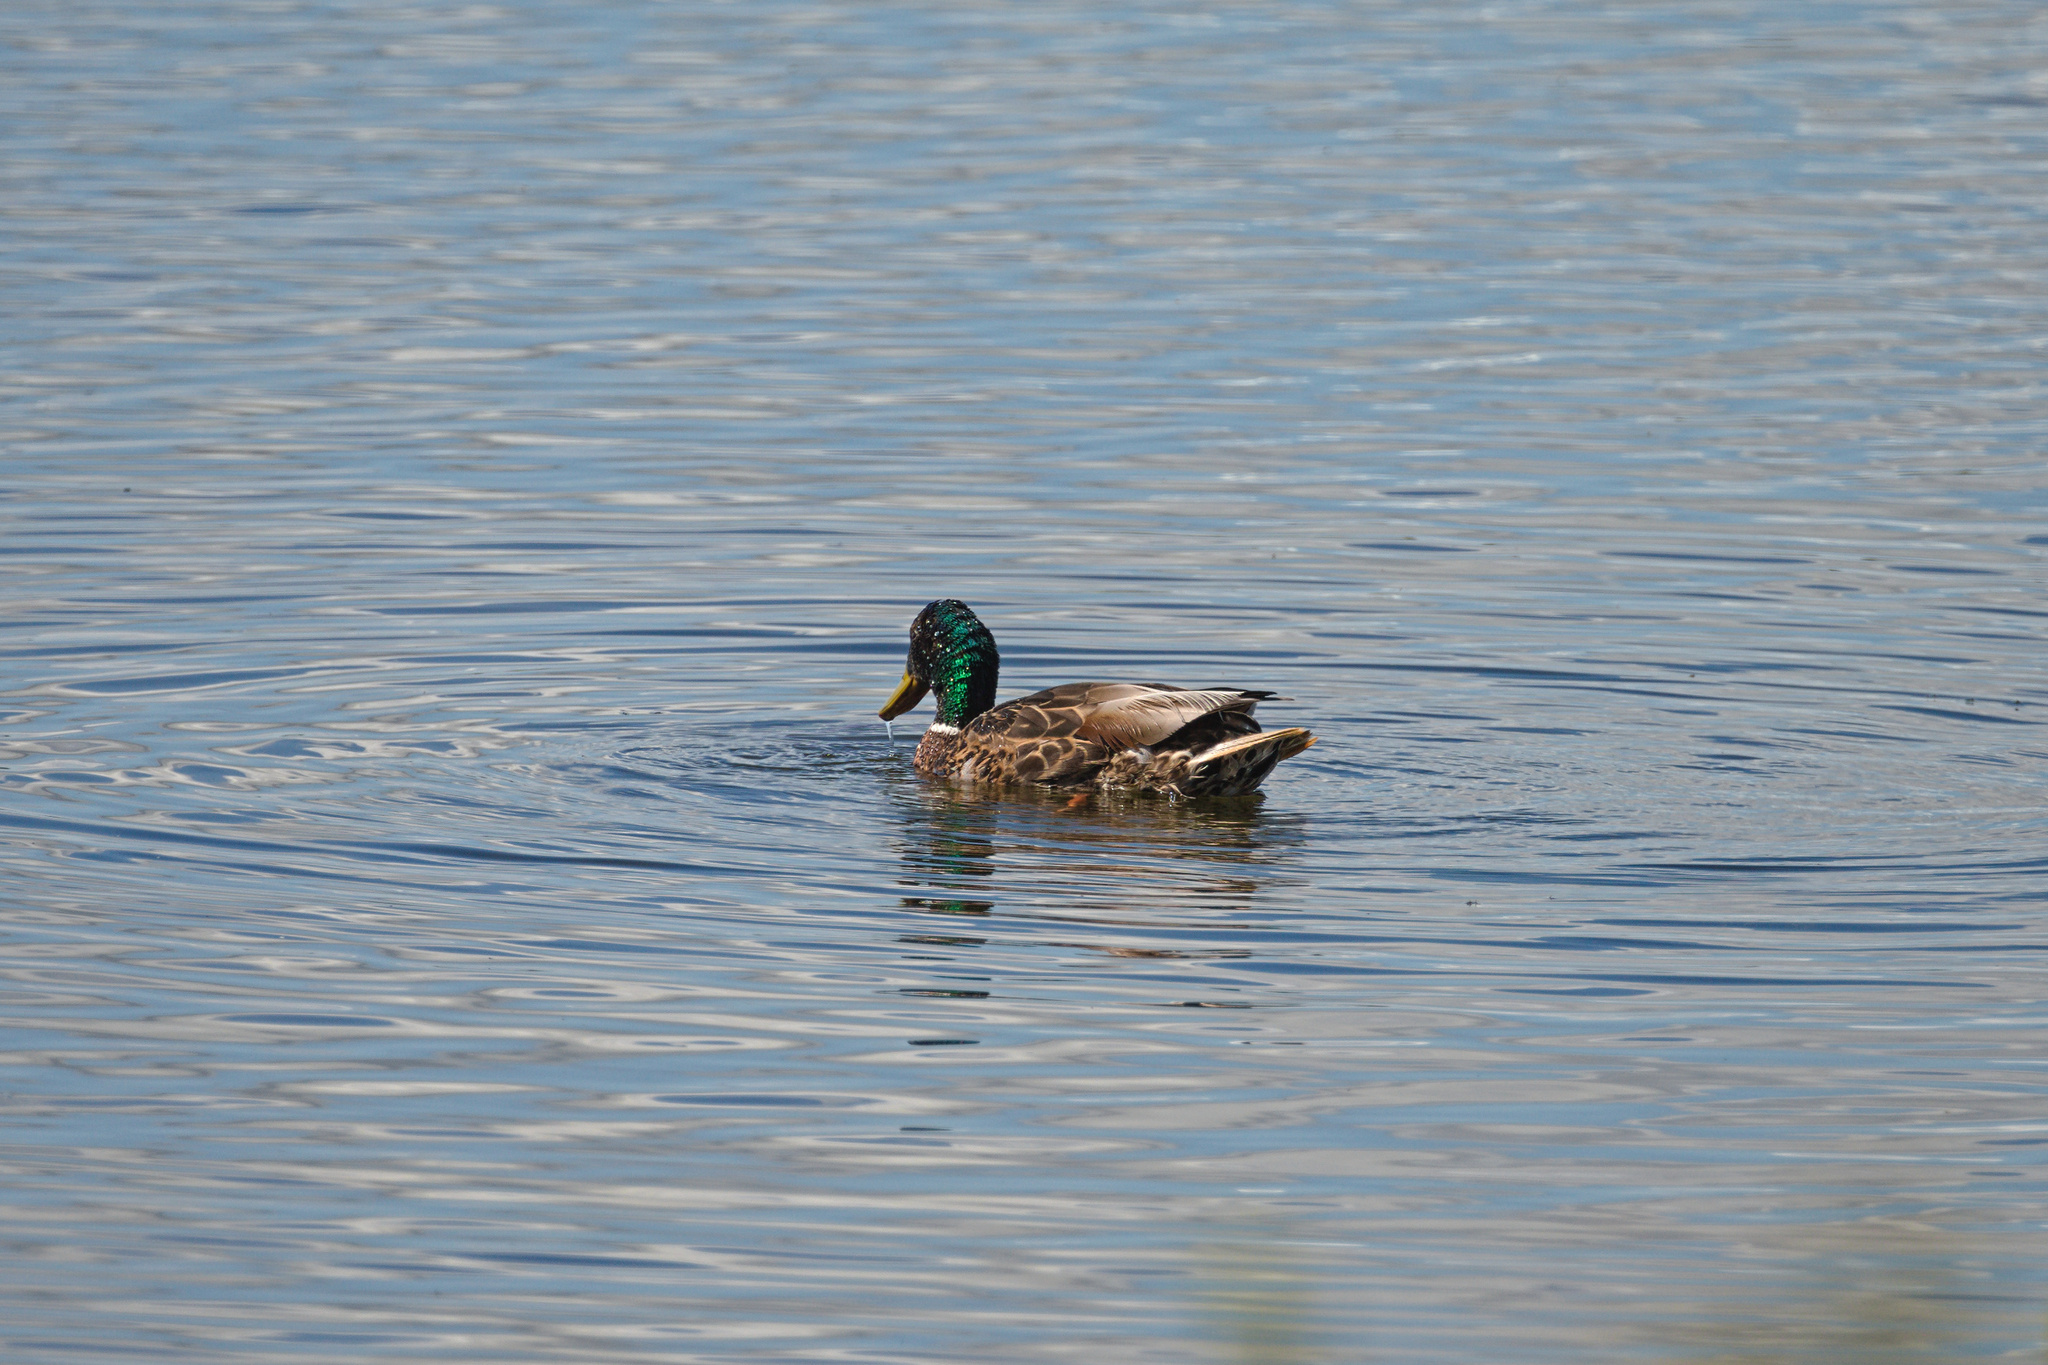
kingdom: Animalia
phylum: Chordata
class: Aves
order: Anseriformes
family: Anatidae
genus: Anas
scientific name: Anas platyrhynchos
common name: Mallard
